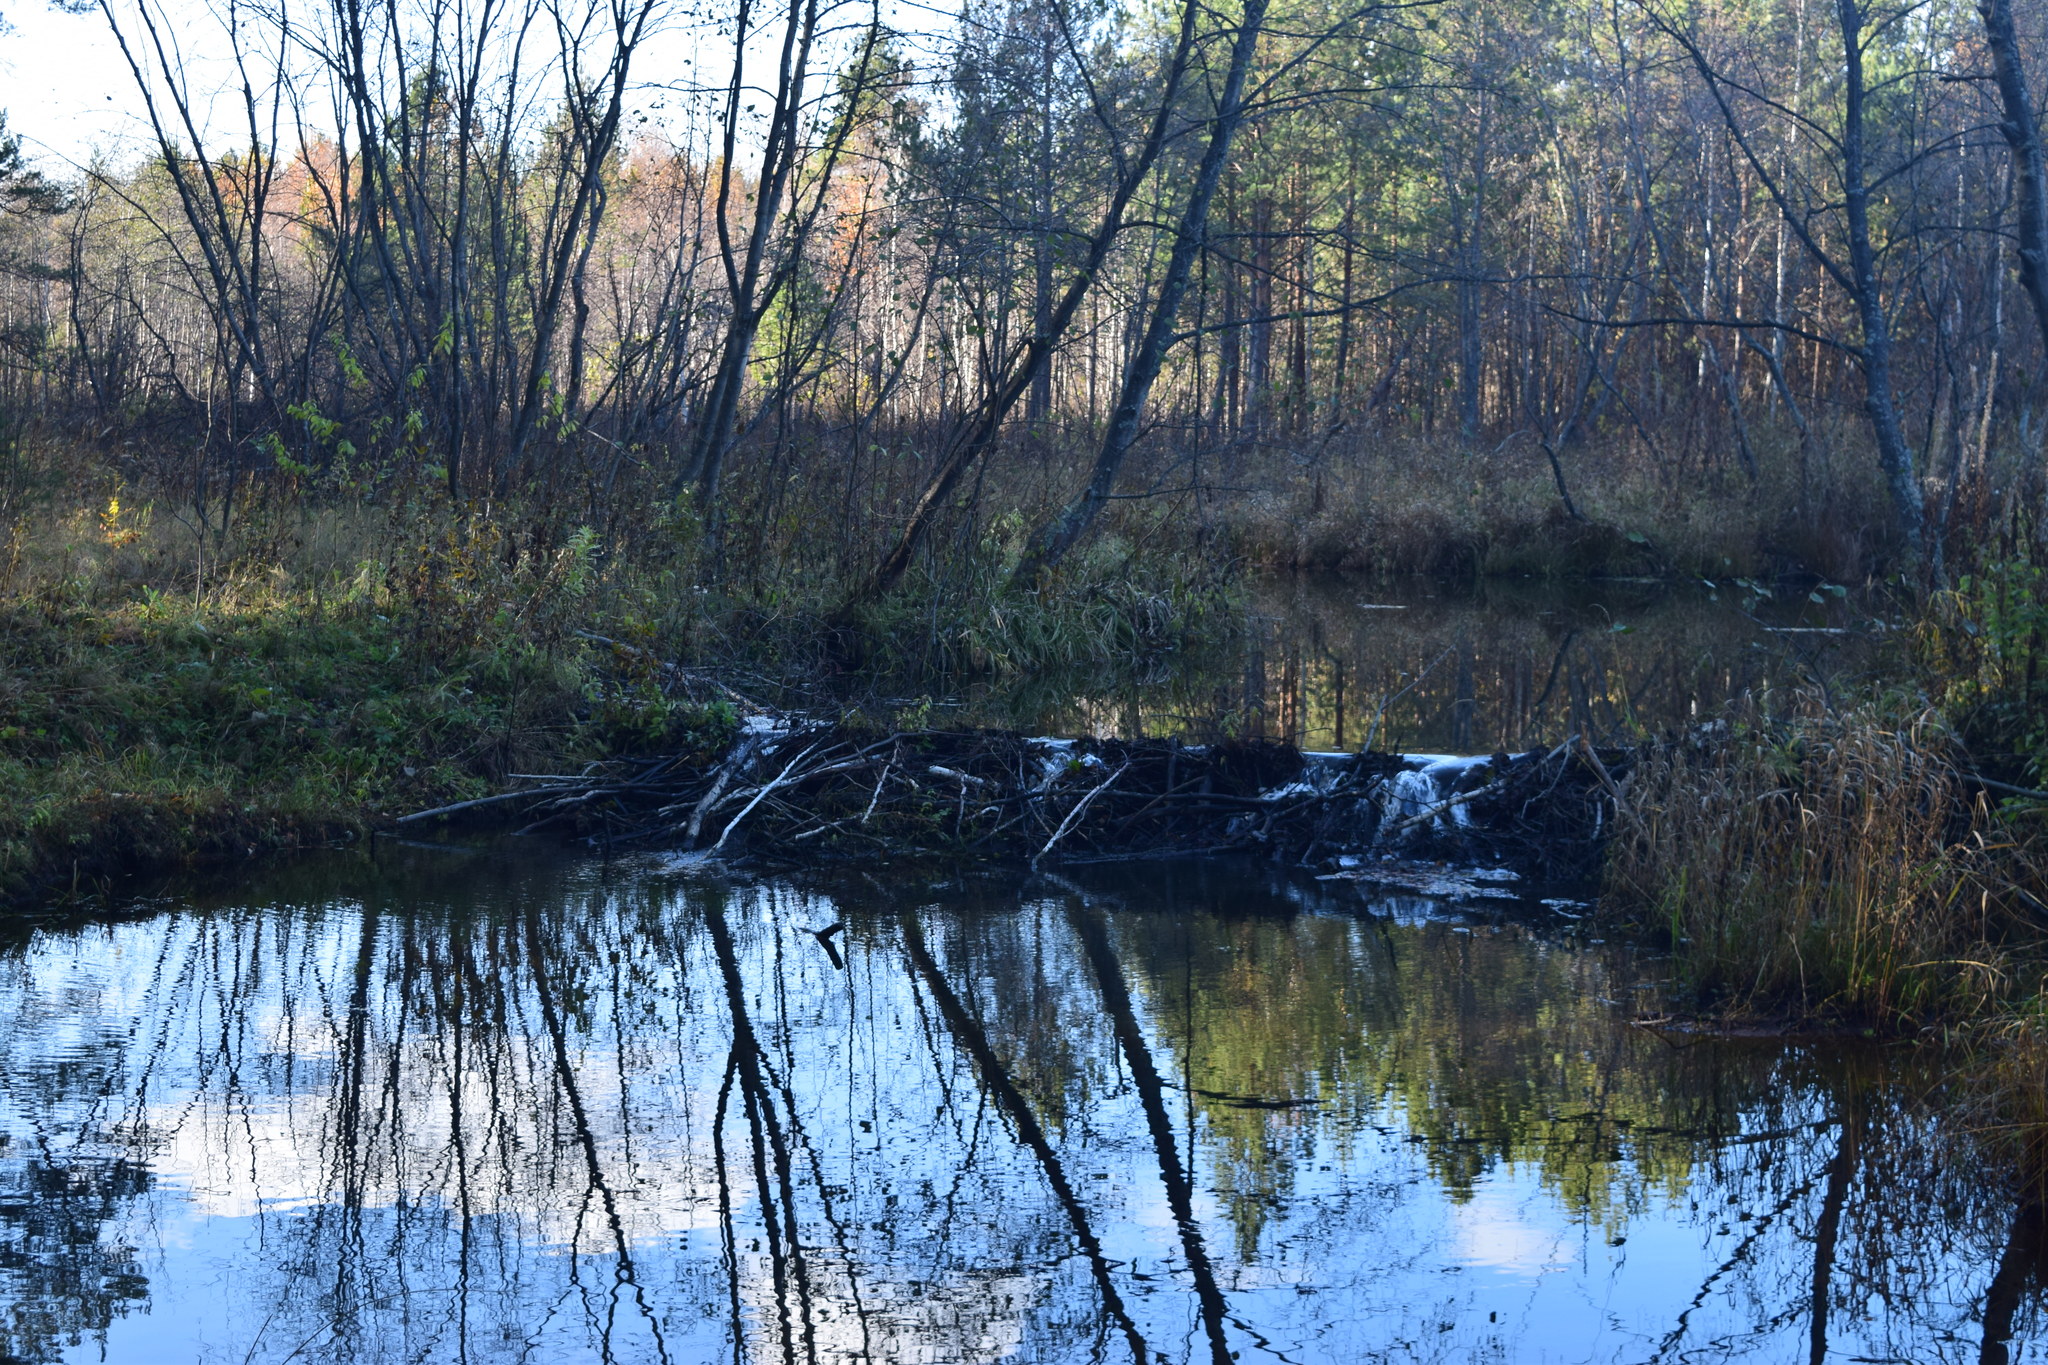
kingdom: Animalia
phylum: Chordata
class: Mammalia
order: Rodentia
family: Castoridae
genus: Castor
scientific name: Castor fiber
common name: Eurasian beaver
